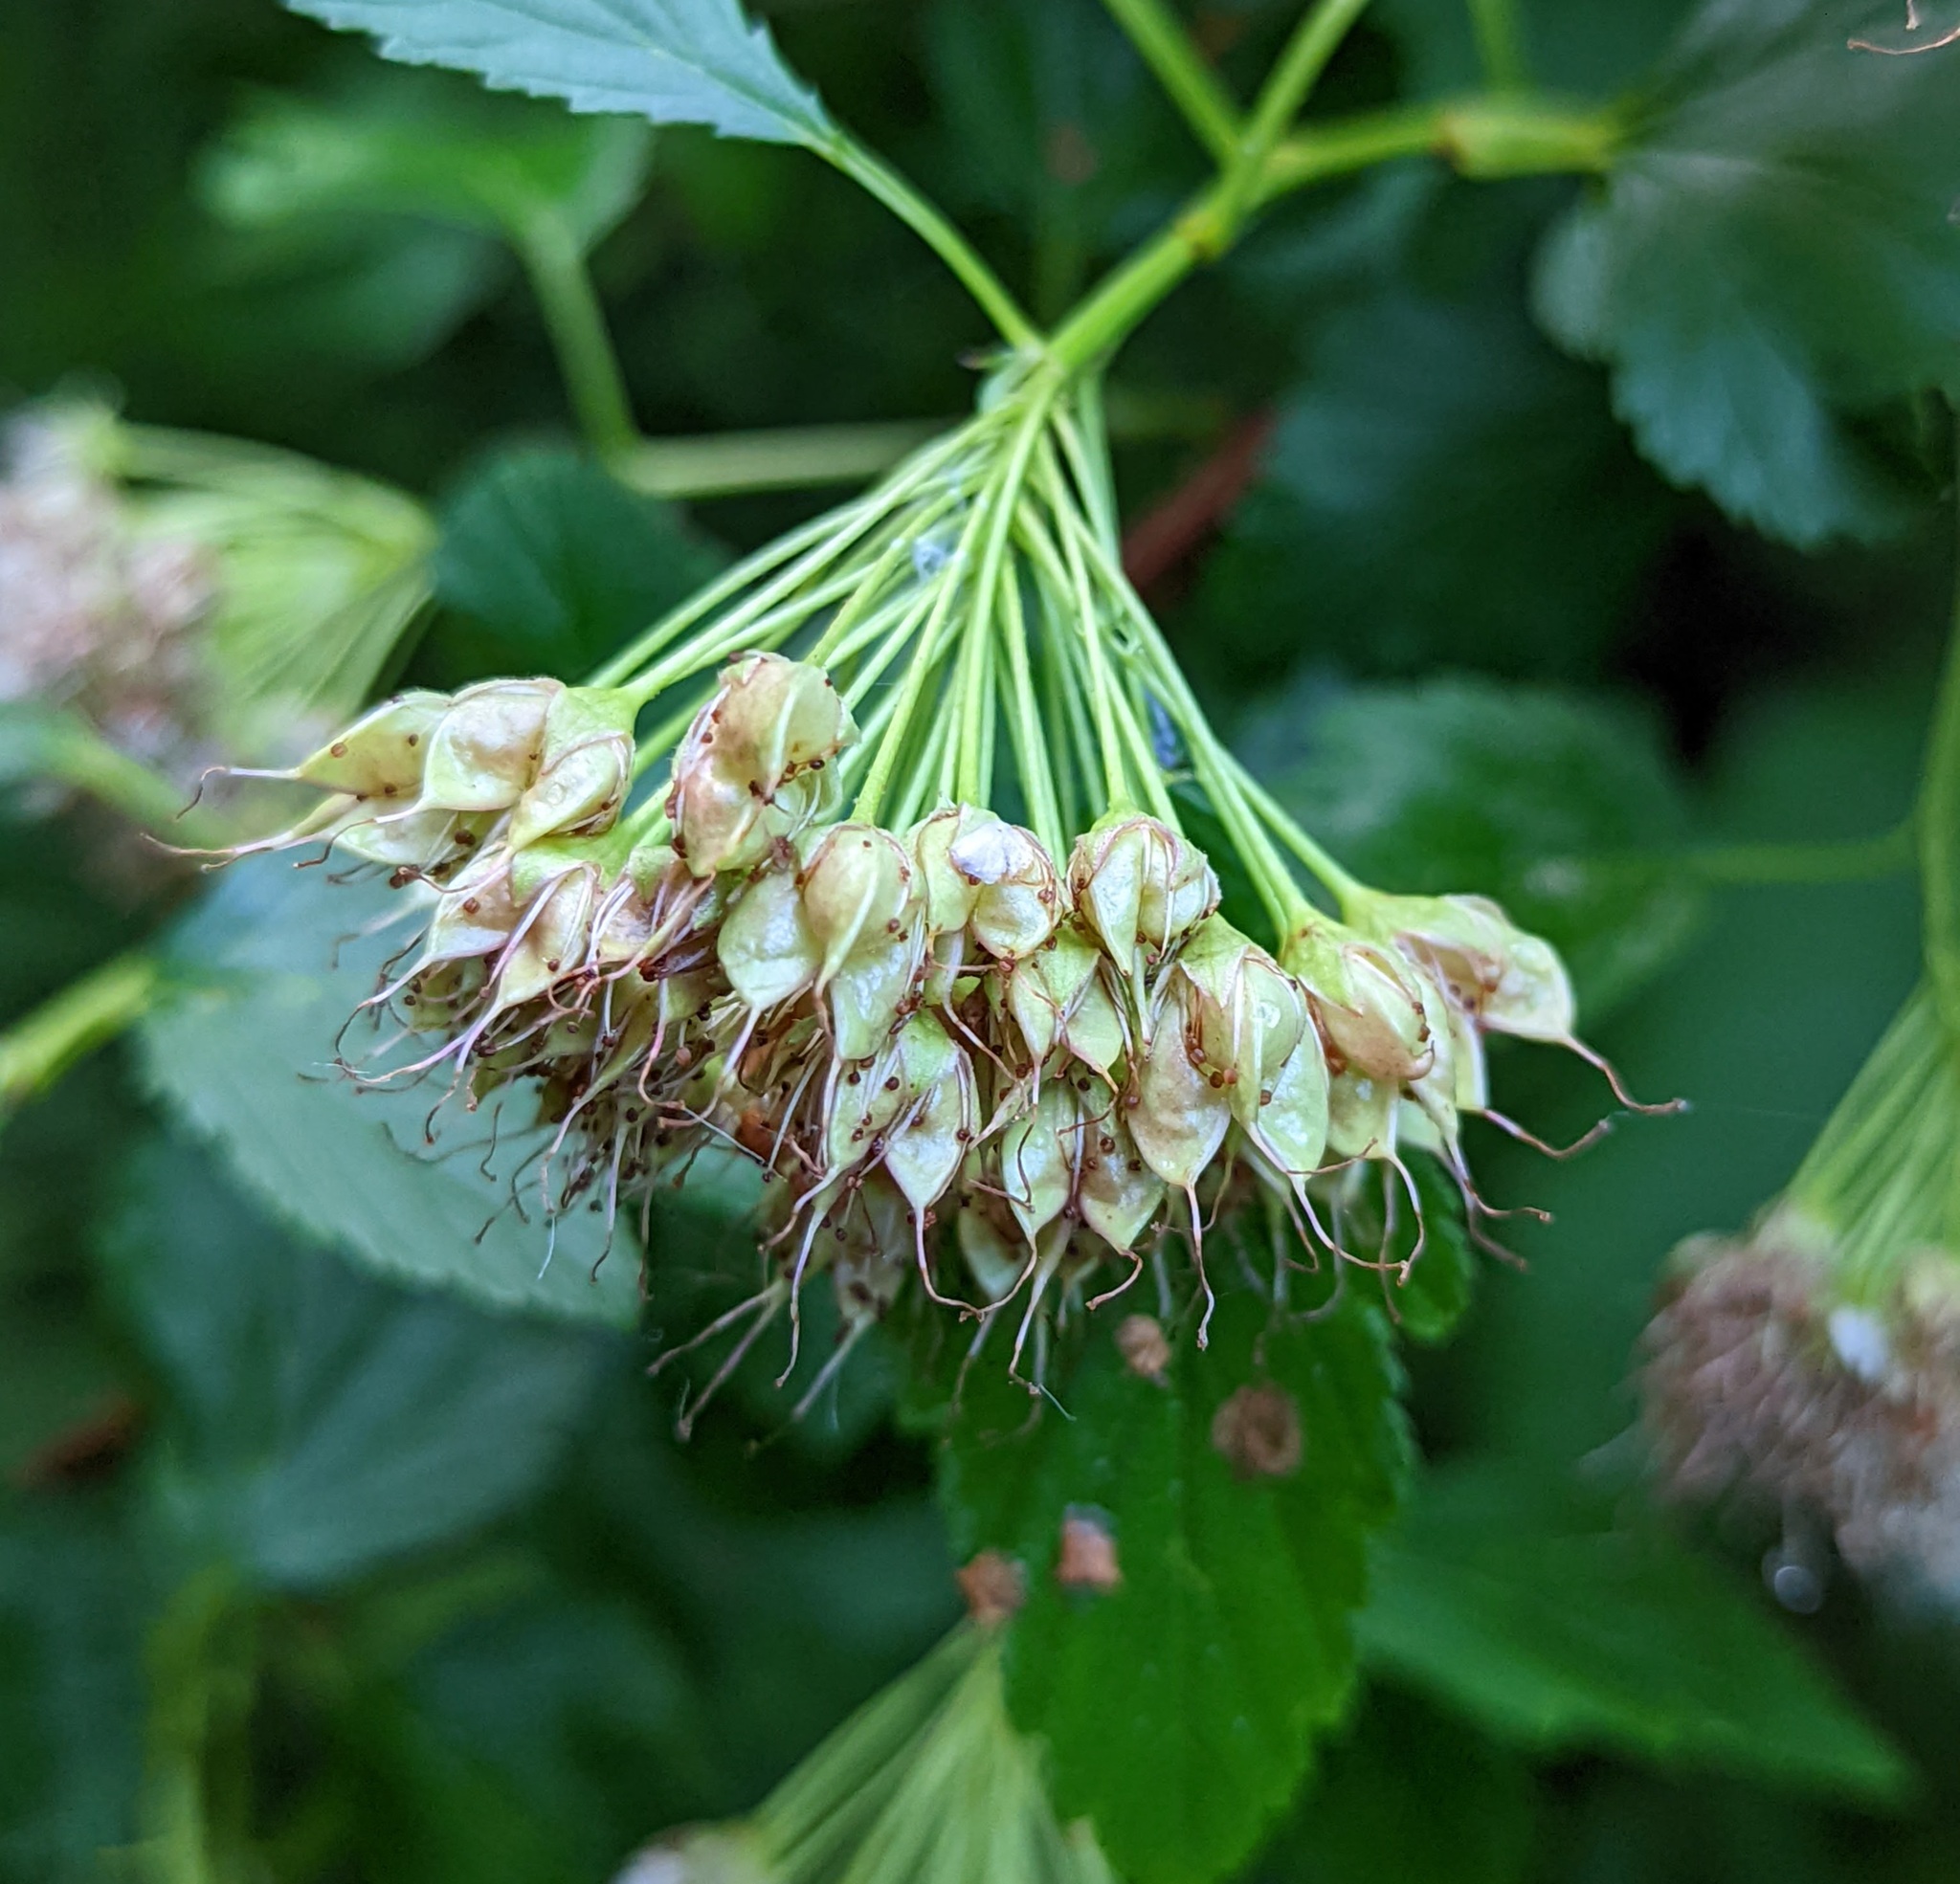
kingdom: Plantae
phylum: Tracheophyta
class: Magnoliopsida
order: Rosales
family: Rosaceae
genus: Physocarpus
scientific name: Physocarpus opulifolius
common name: Ninebark
